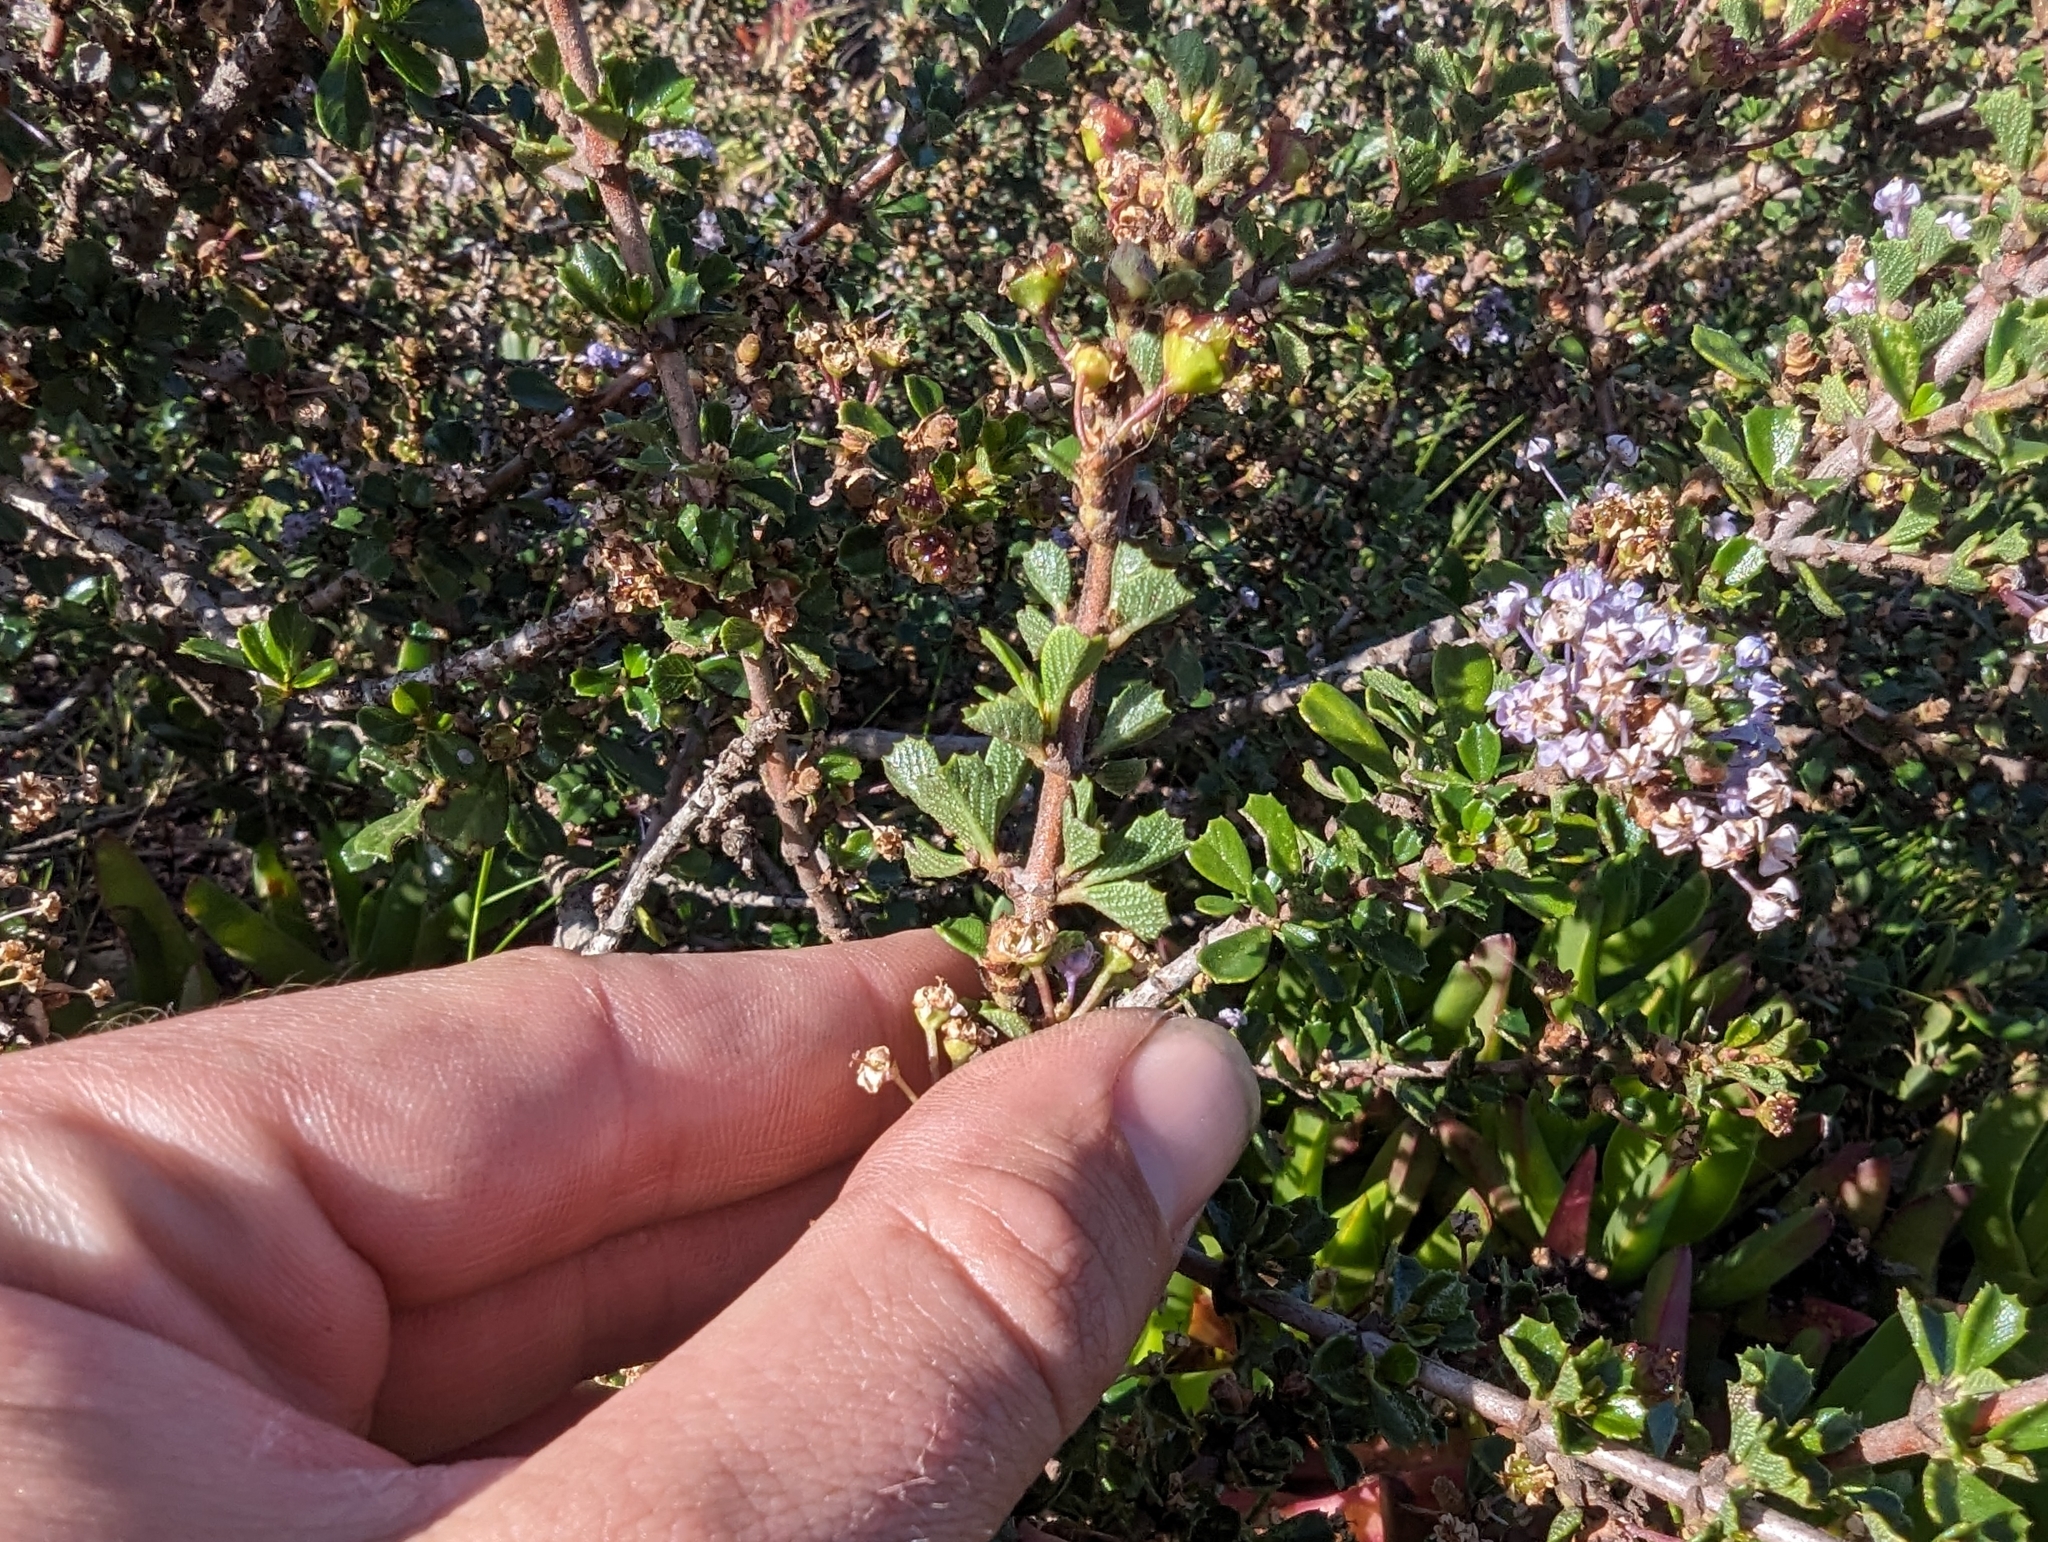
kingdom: Plantae
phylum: Tracheophyta
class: Magnoliopsida
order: Rosales
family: Rhamnaceae
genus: Ceanothus
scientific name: Ceanothus cuneatus
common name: Cuneate ceanothus
